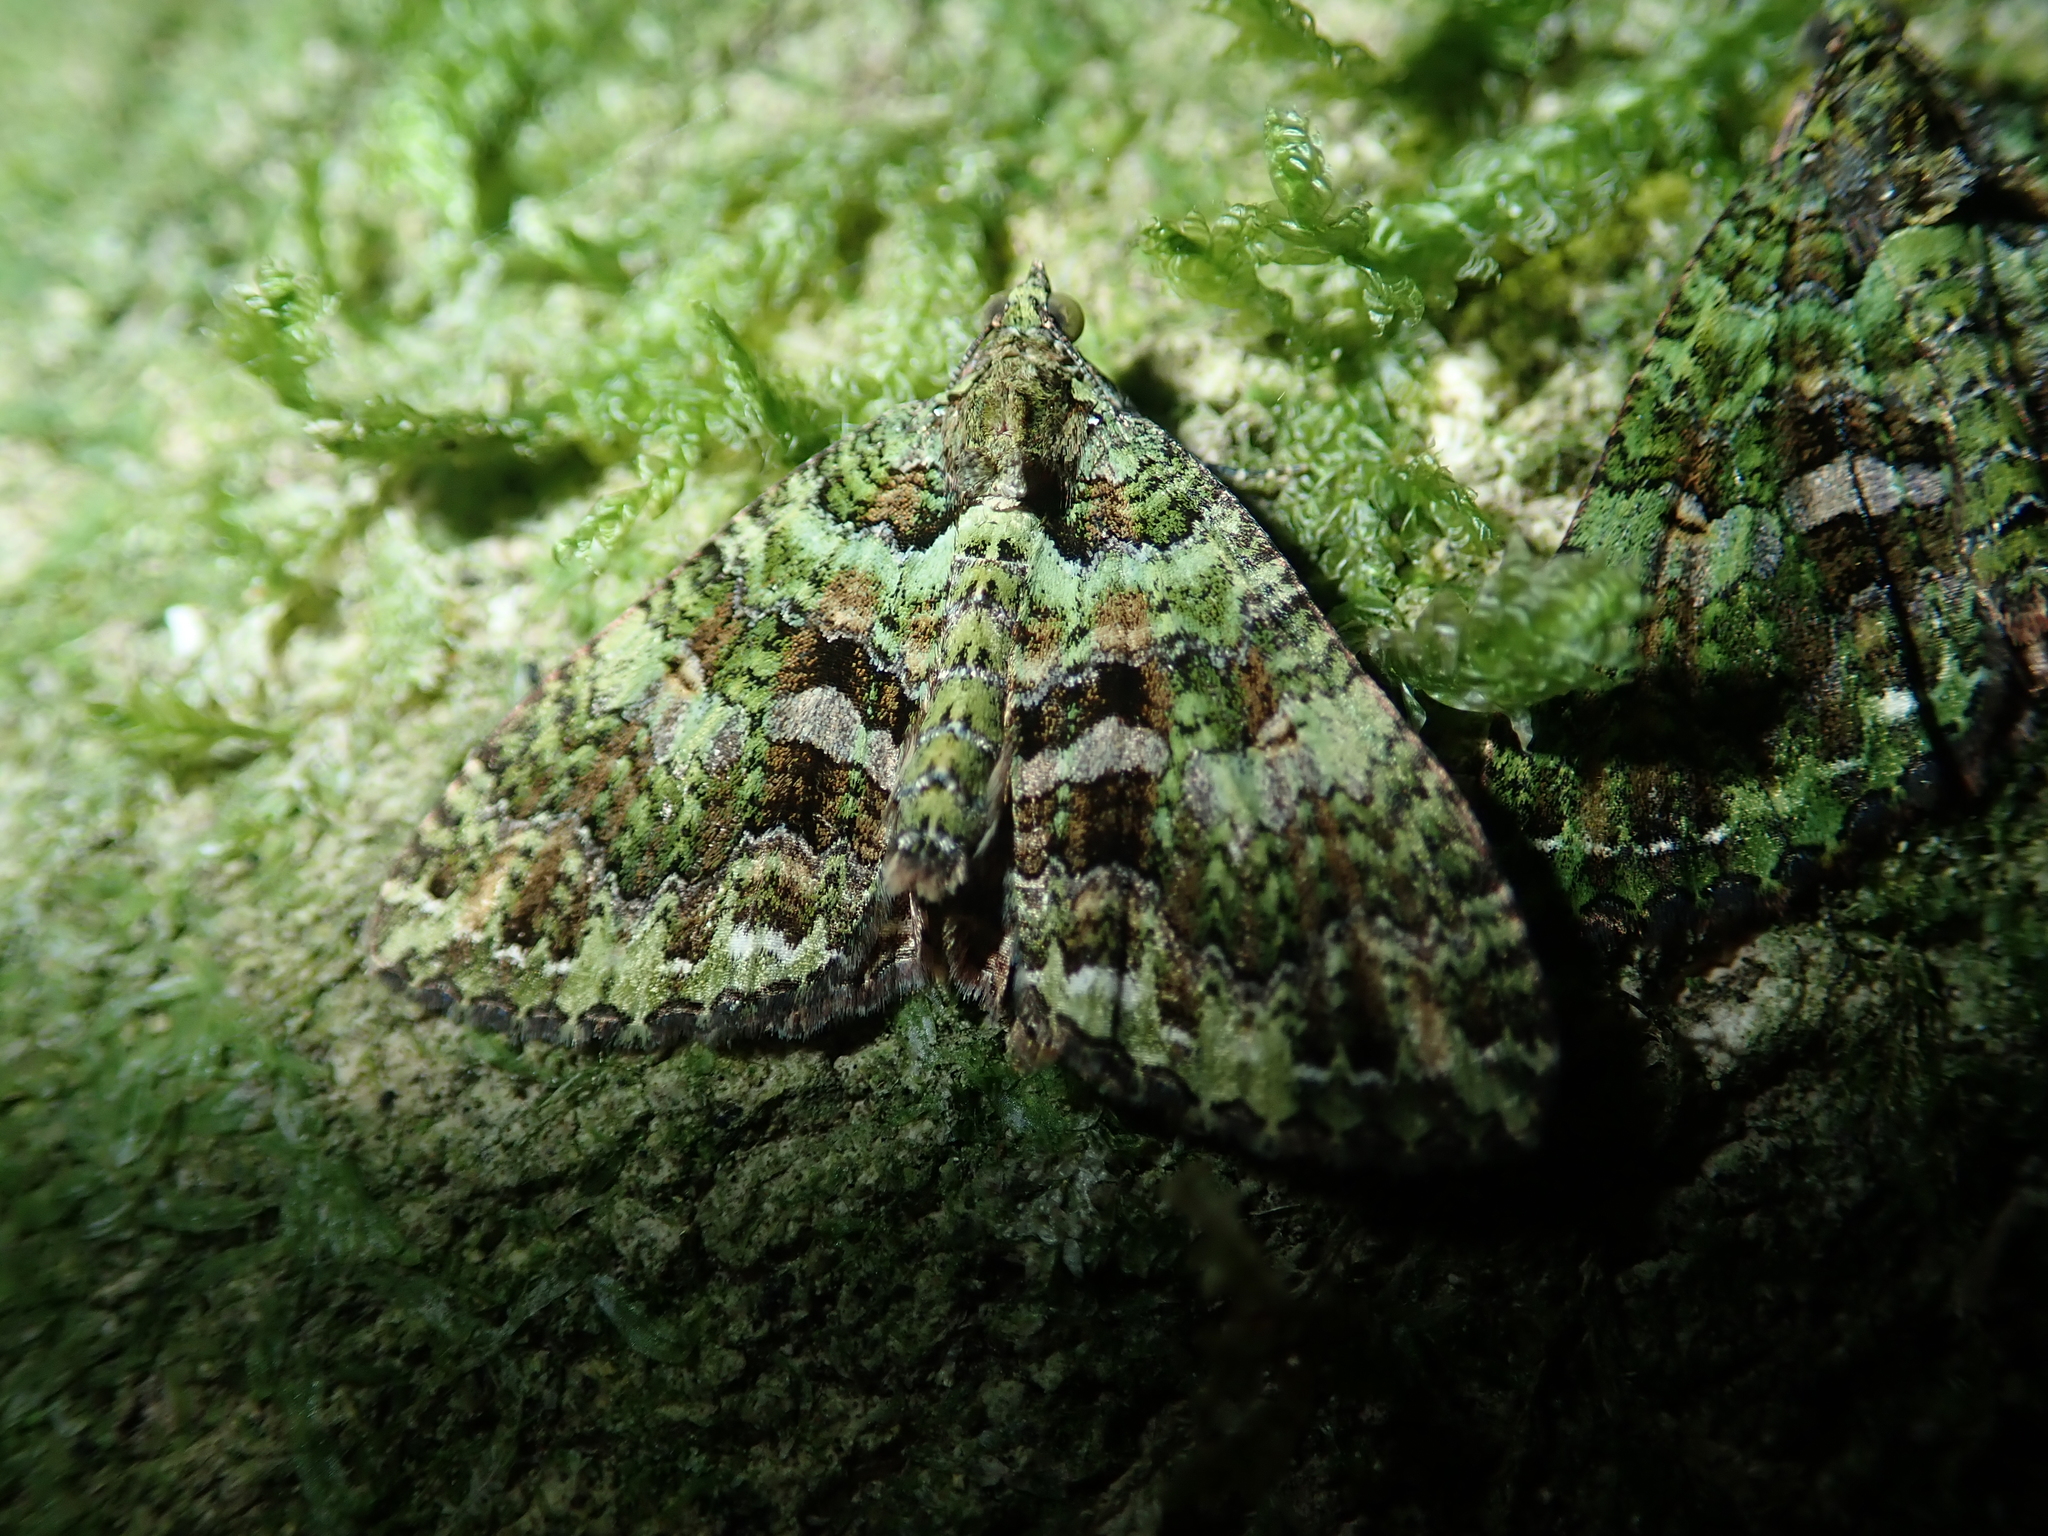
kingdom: Animalia
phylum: Arthropoda
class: Insecta
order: Lepidoptera
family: Geometridae
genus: Austrocidaria
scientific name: Austrocidaria similata
